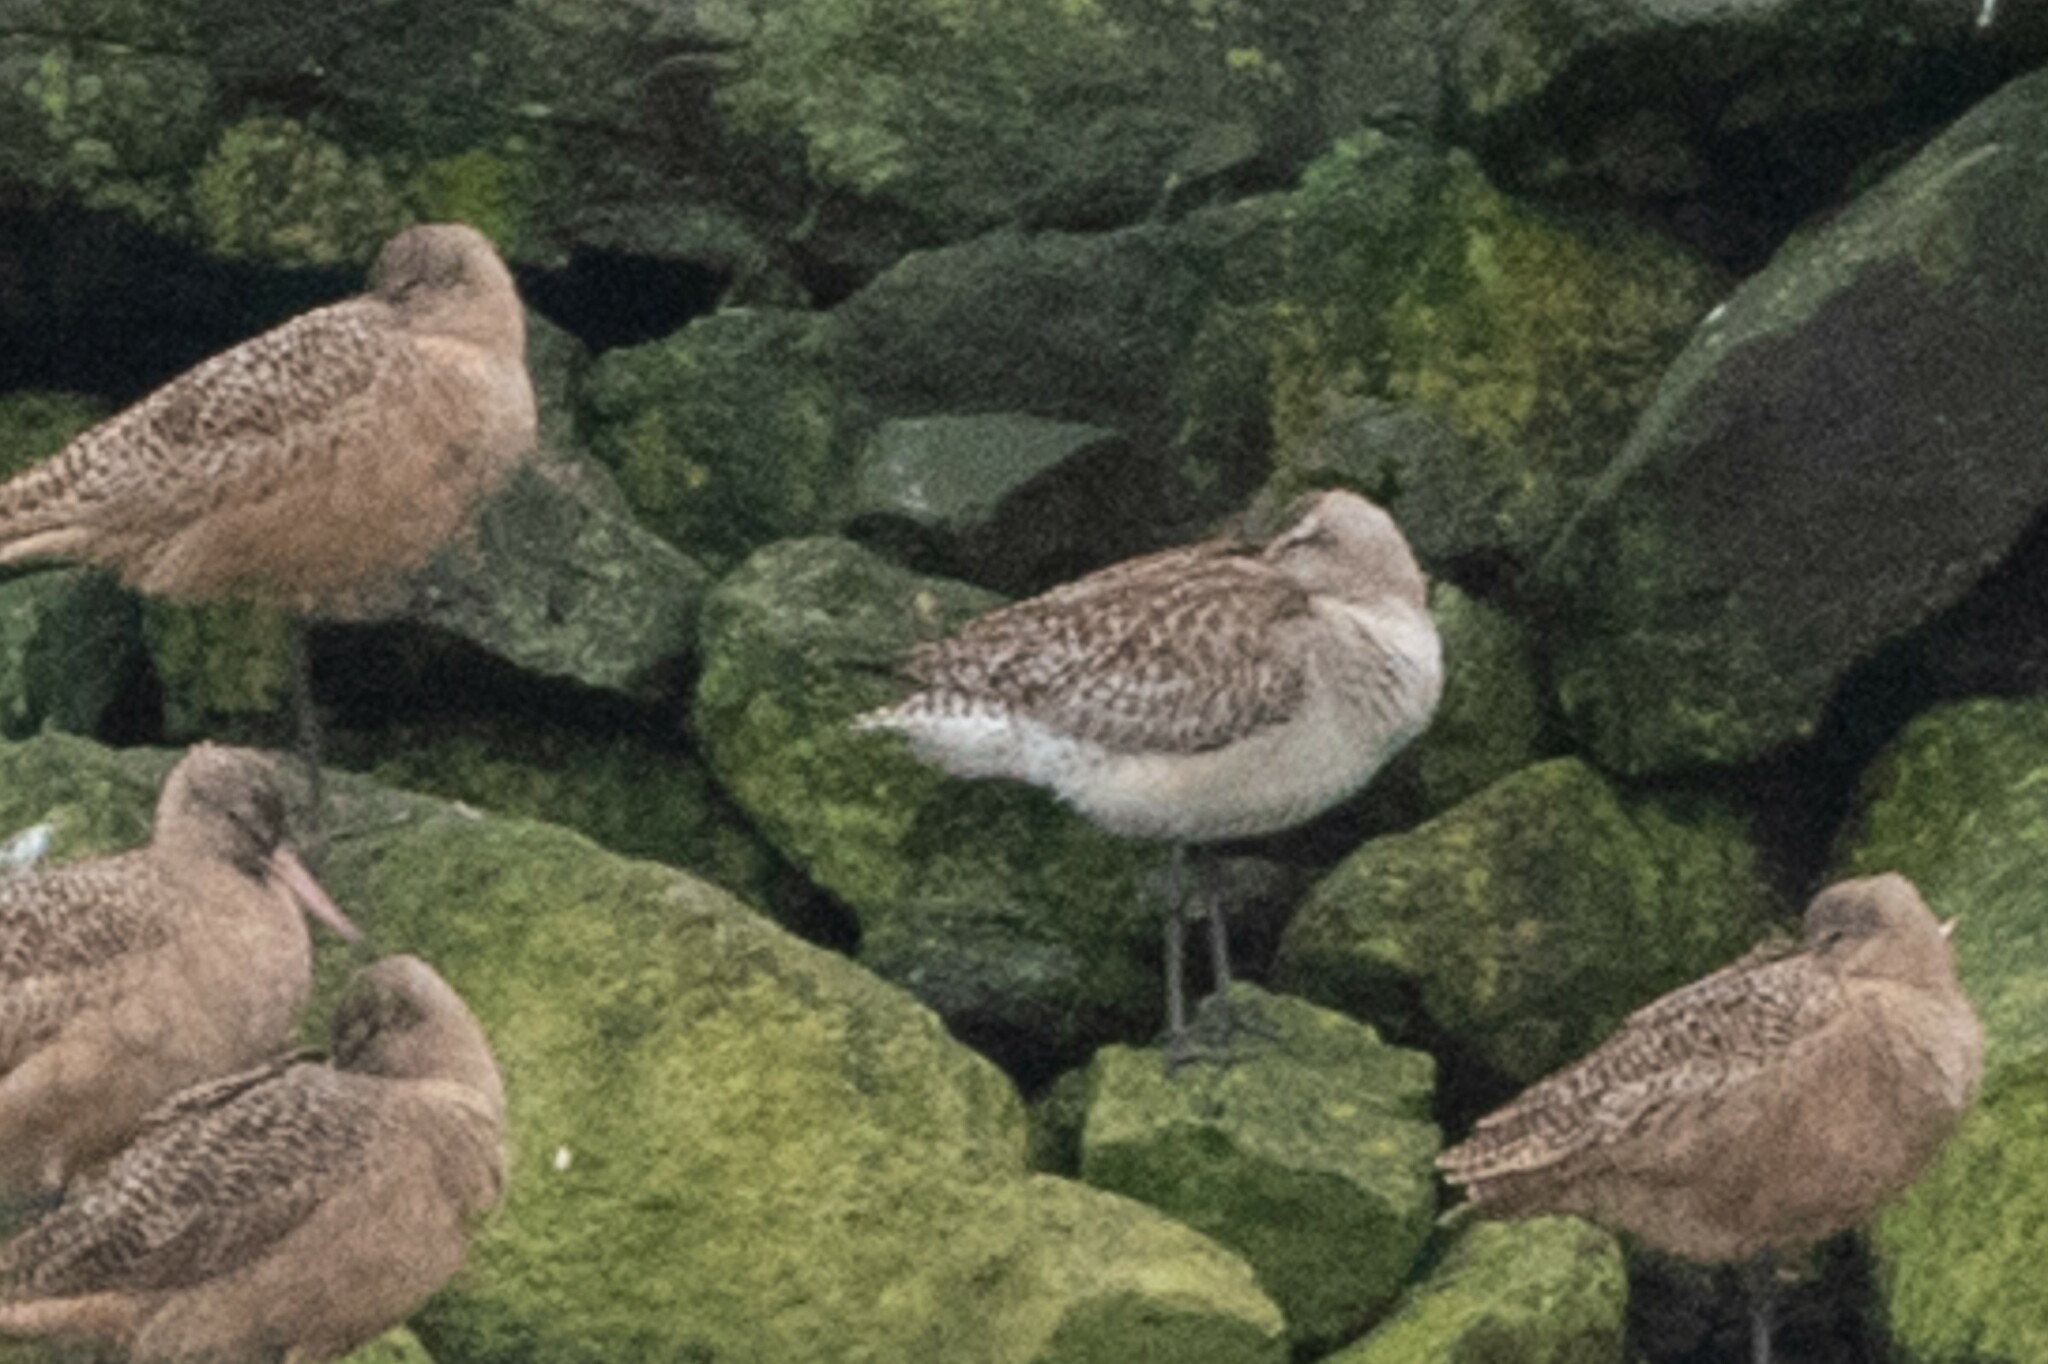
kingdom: Animalia
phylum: Chordata
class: Aves
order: Charadriiformes
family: Scolopacidae
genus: Limosa
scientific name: Limosa lapponica
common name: Bar-tailed godwit
